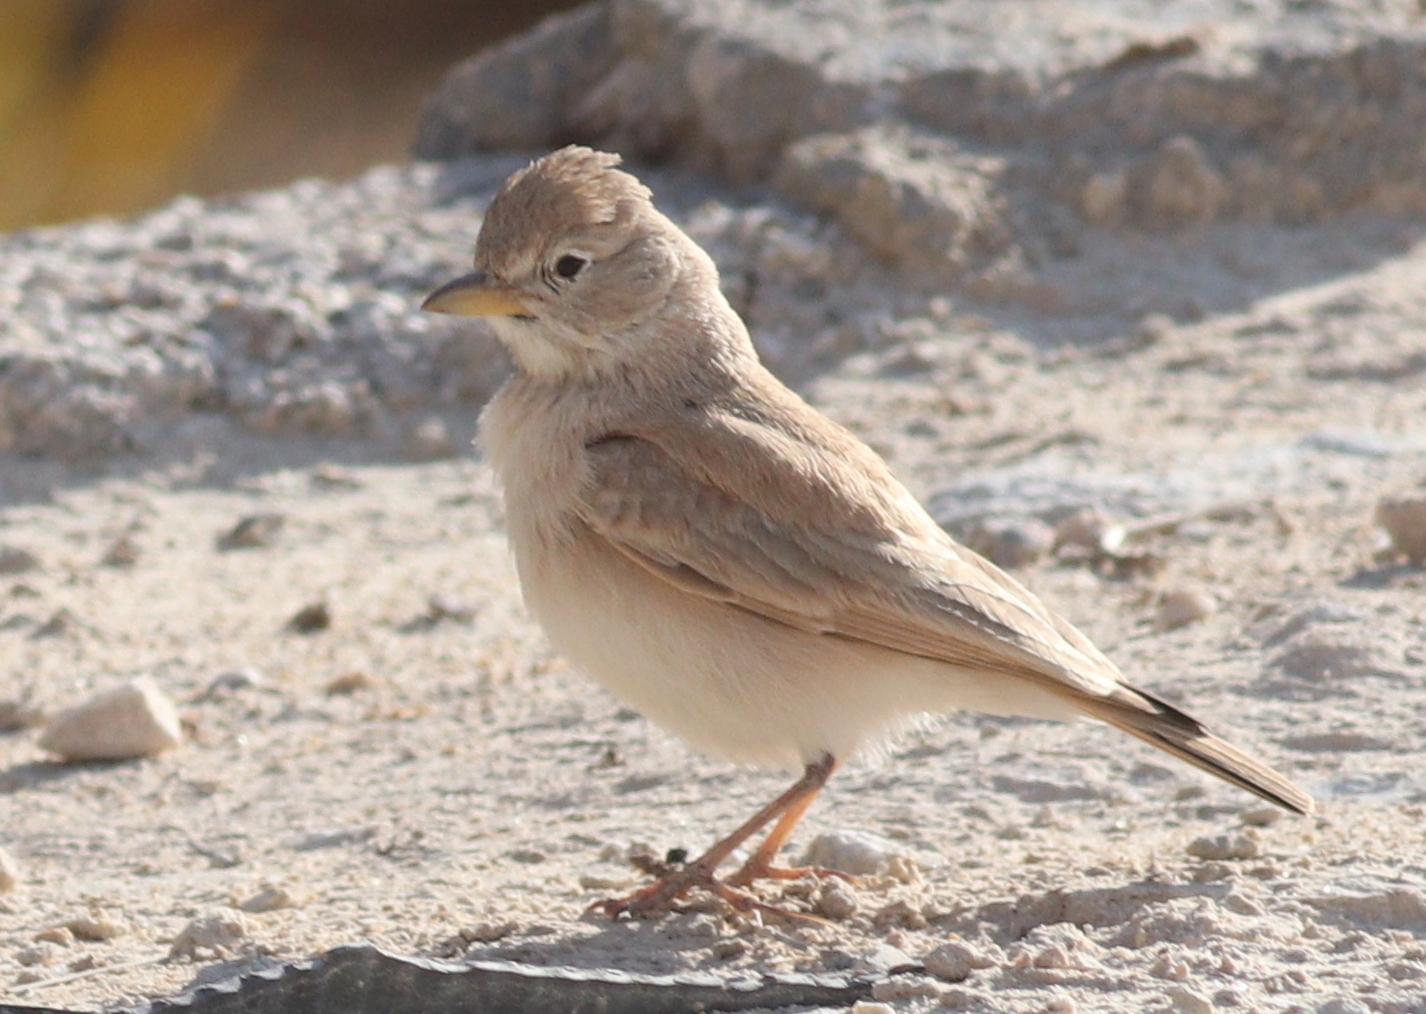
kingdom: Animalia
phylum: Chordata
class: Aves
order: Passeriformes
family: Alaudidae
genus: Ammomanes
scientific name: Ammomanes deserti
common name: Desert lark
